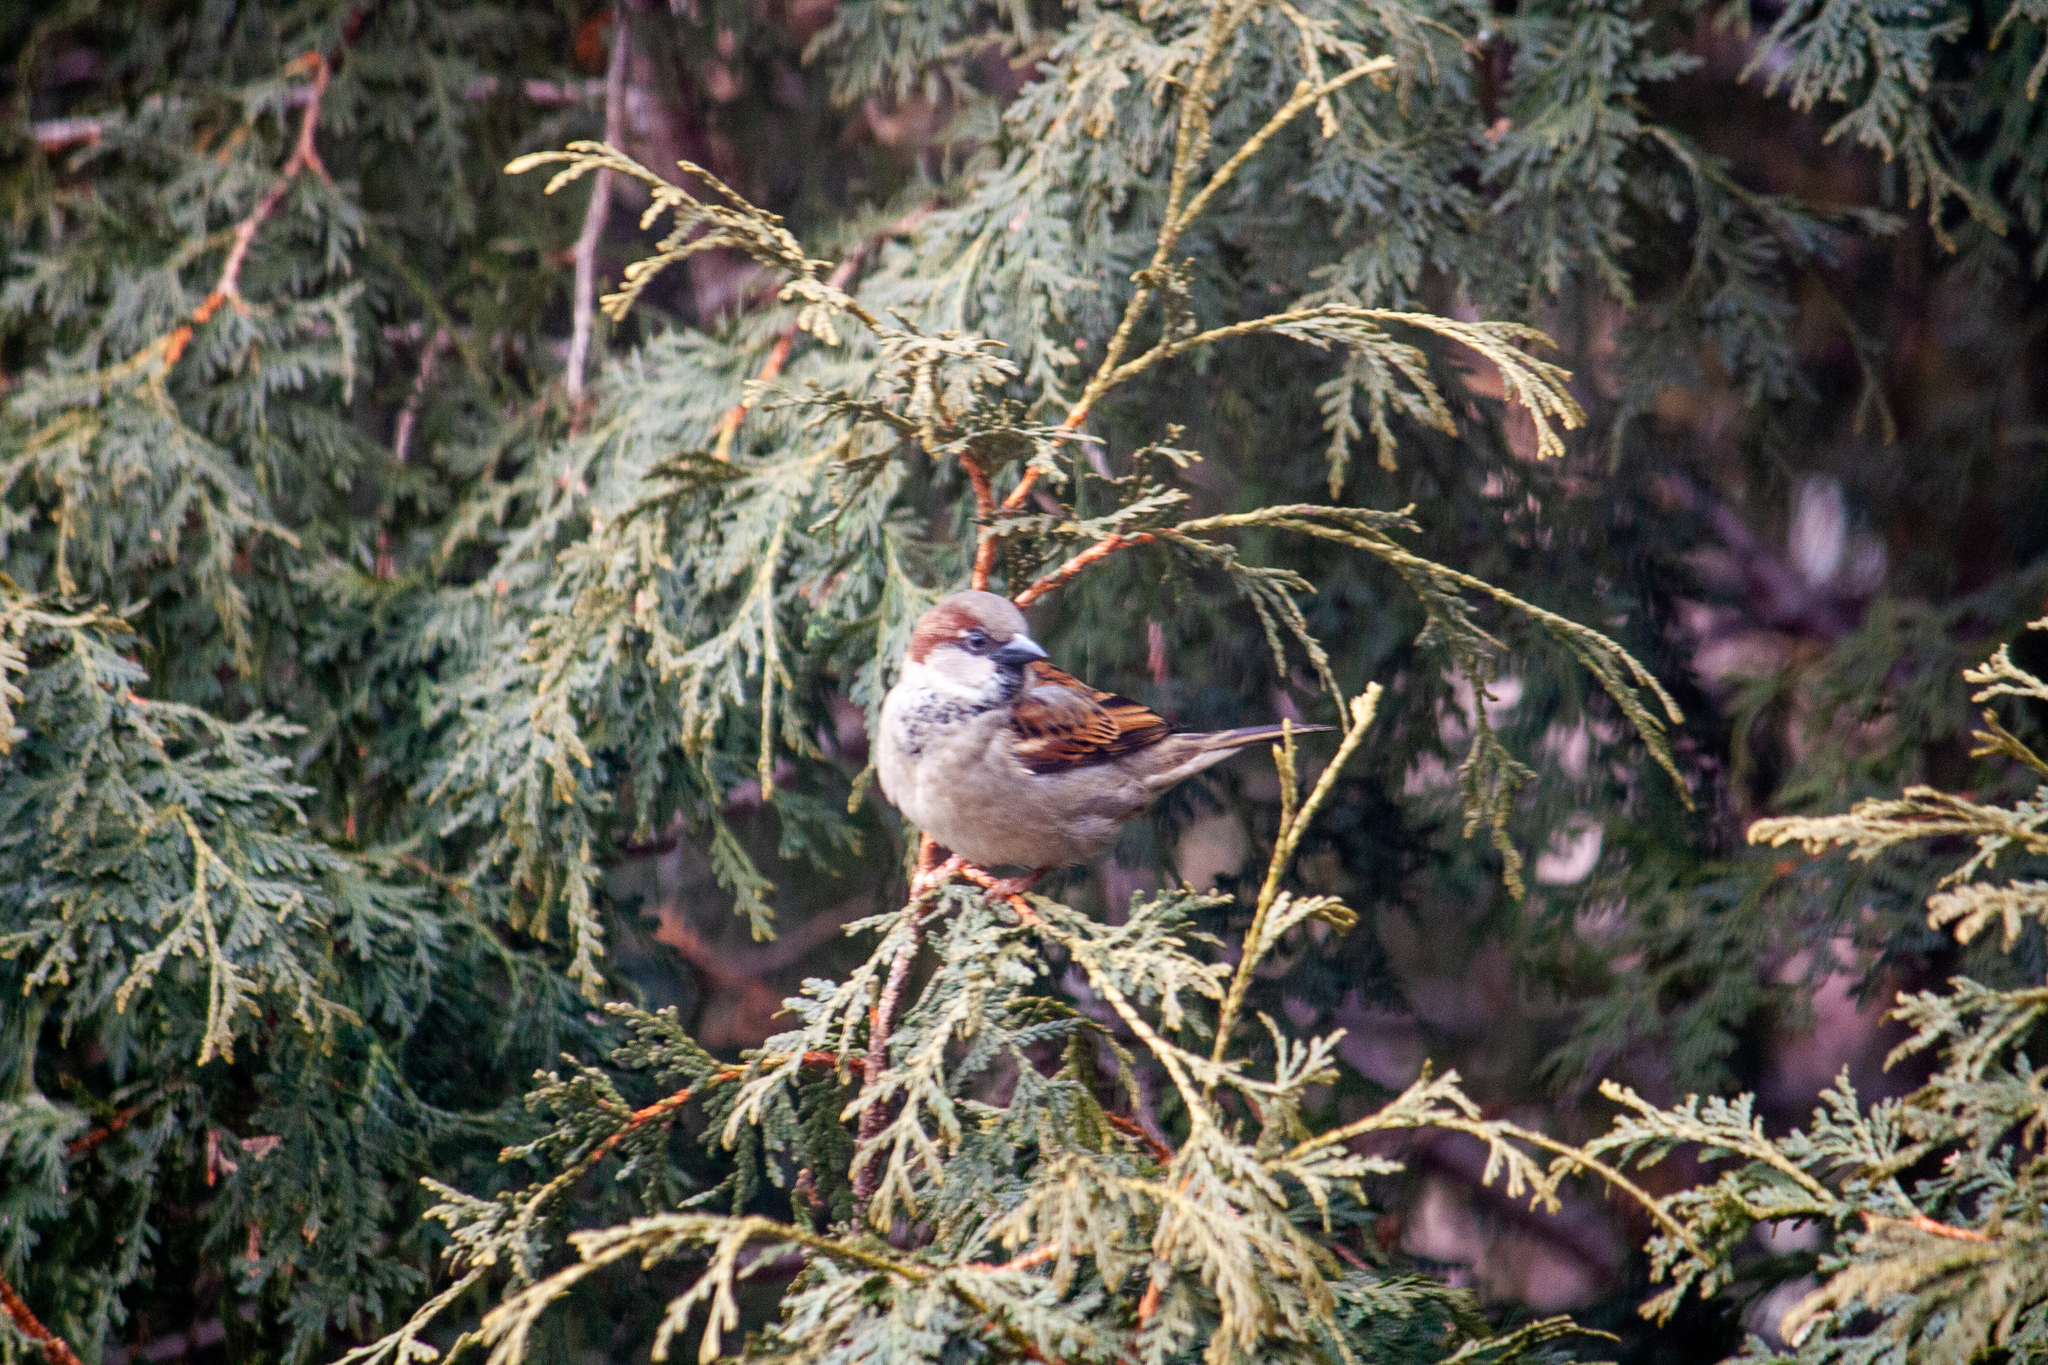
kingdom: Animalia
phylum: Chordata
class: Aves
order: Passeriformes
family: Passeridae
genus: Passer
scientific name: Passer domesticus
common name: House sparrow
